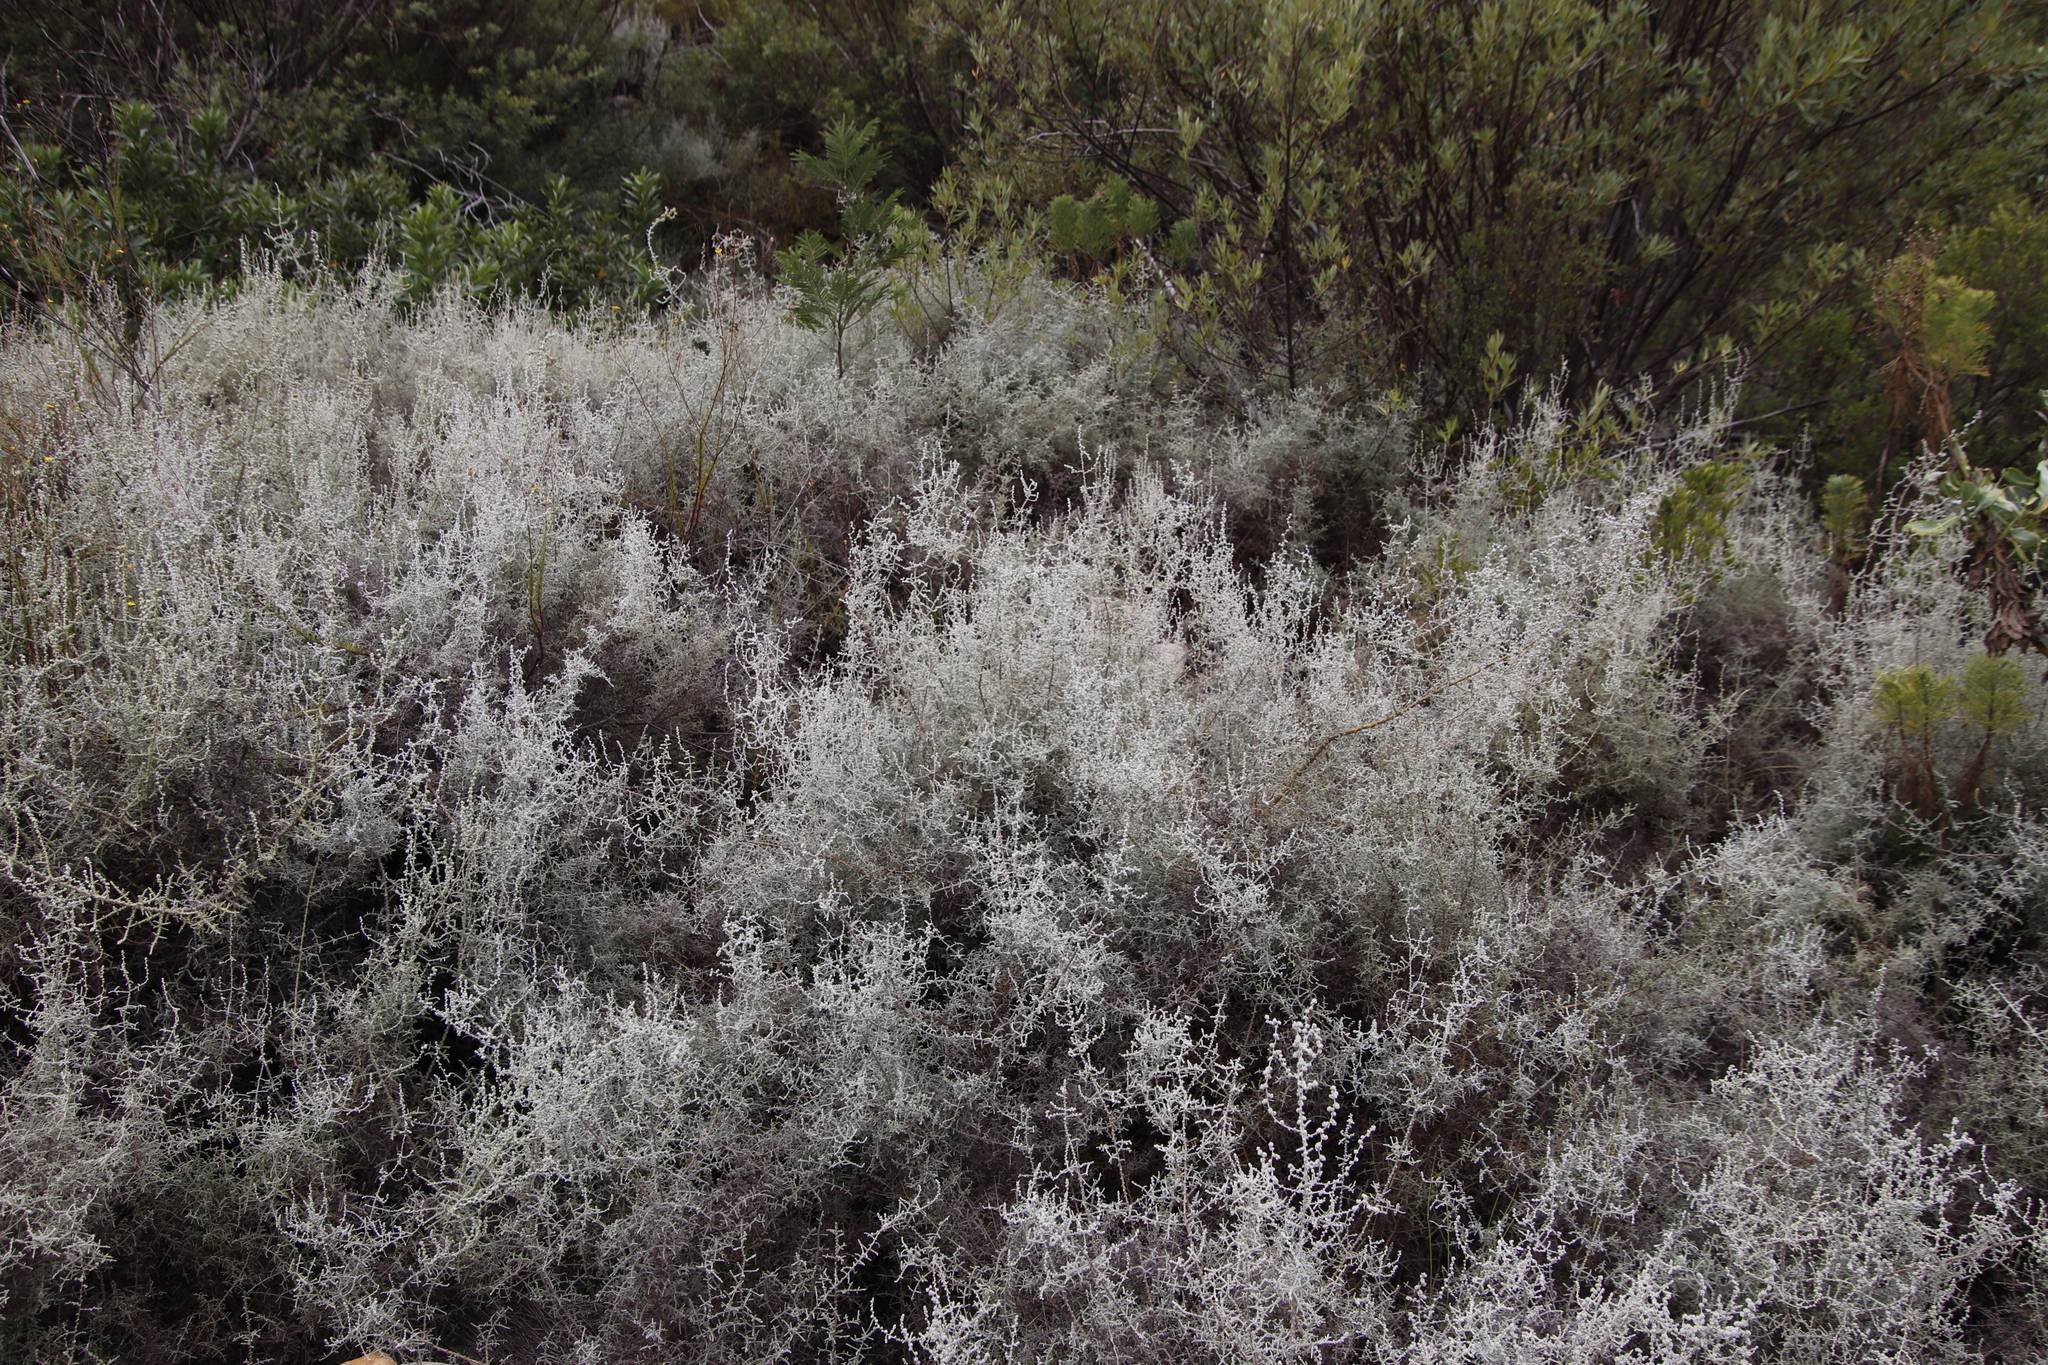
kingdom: Plantae
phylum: Tracheophyta
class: Magnoliopsida
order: Asterales
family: Asteraceae
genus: Seriphium
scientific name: Seriphium plumosum
